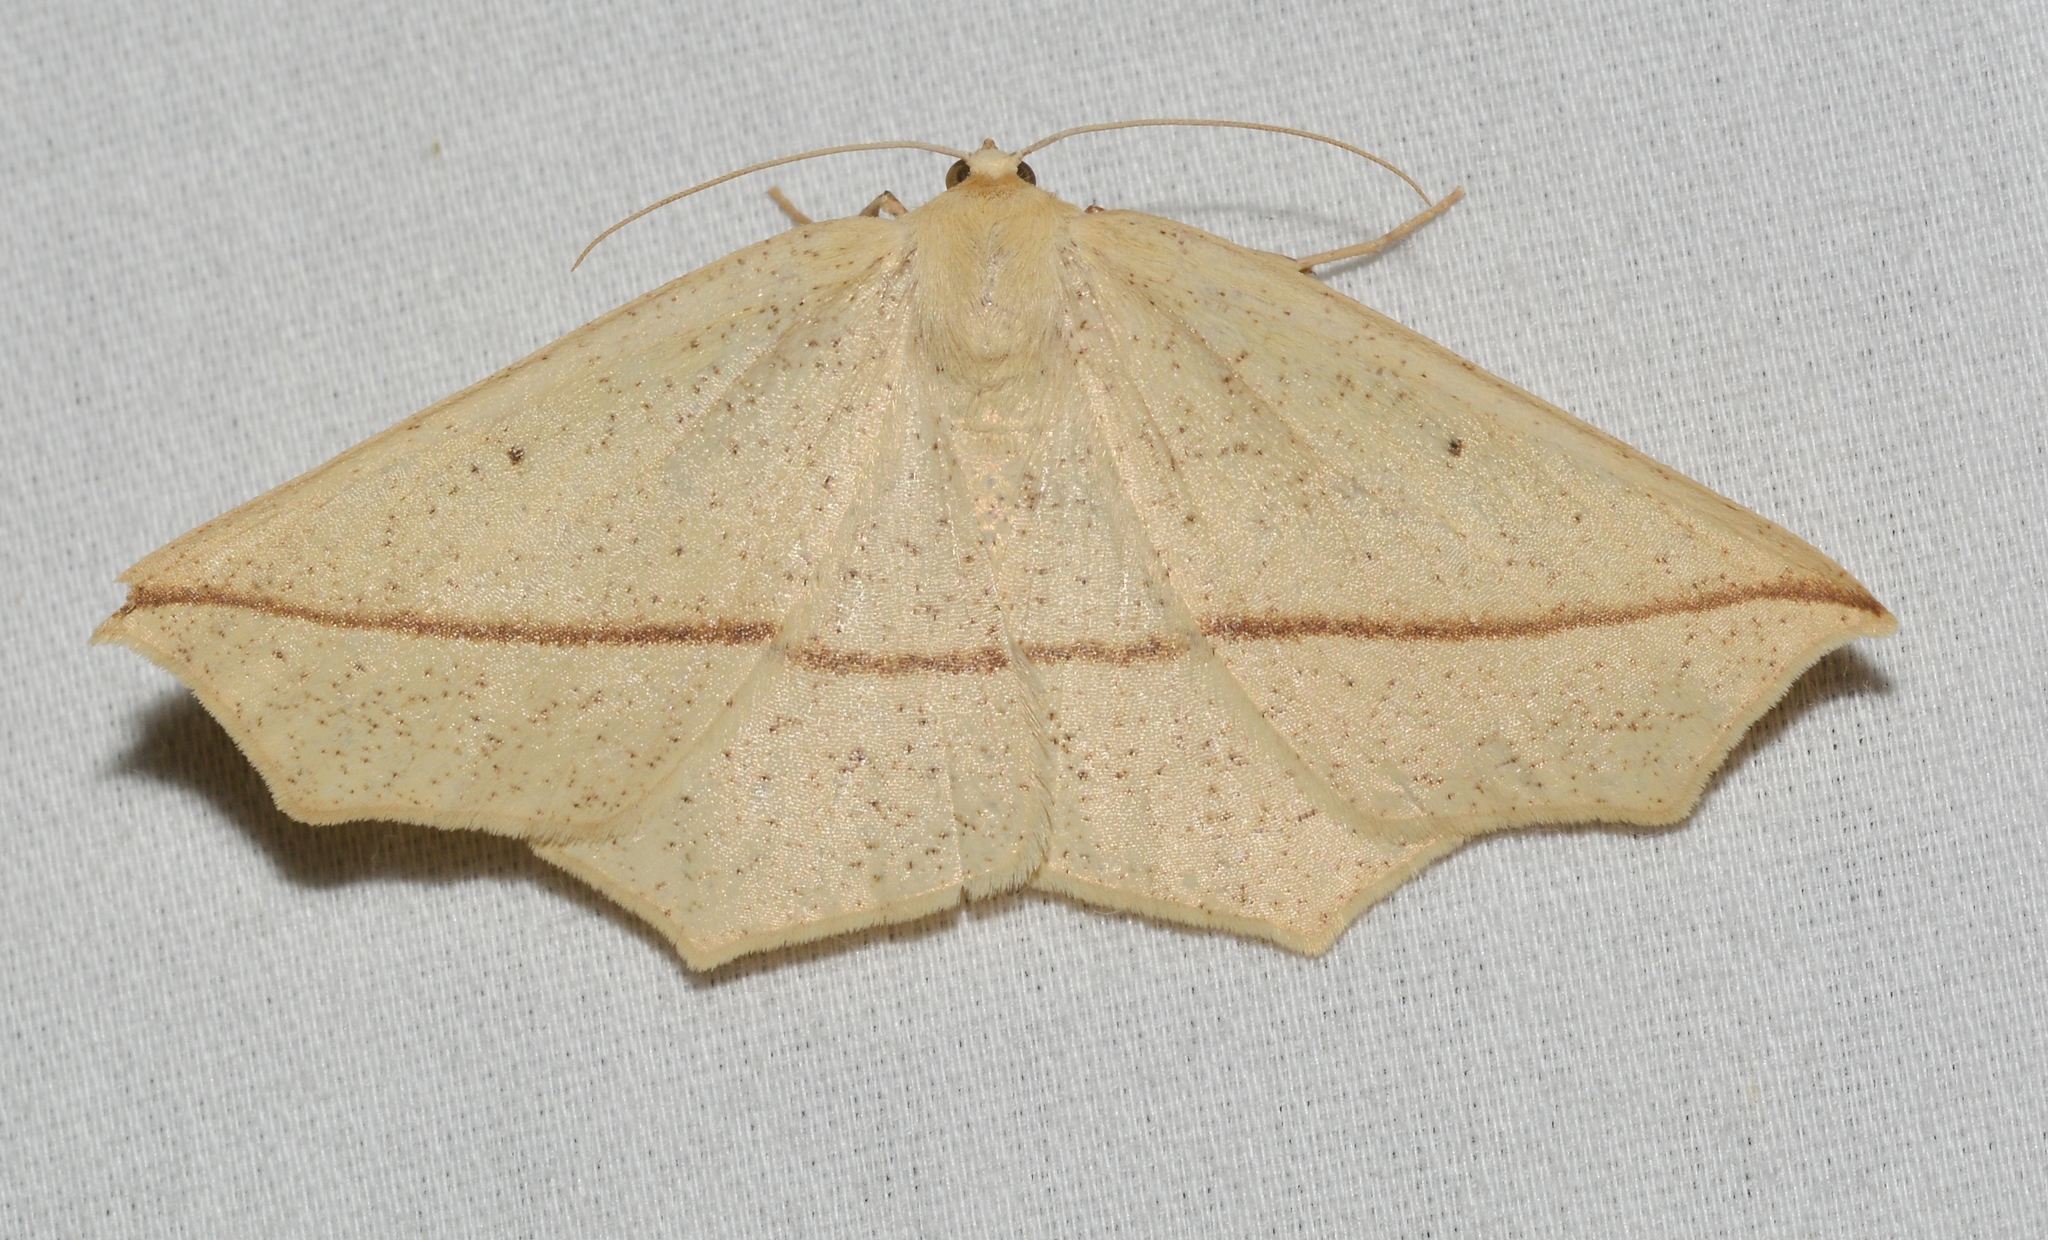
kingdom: Animalia
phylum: Arthropoda
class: Insecta
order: Lepidoptera
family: Geometridae
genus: Tetracis
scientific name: Tetracis crocallata
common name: Yellow slant-line
